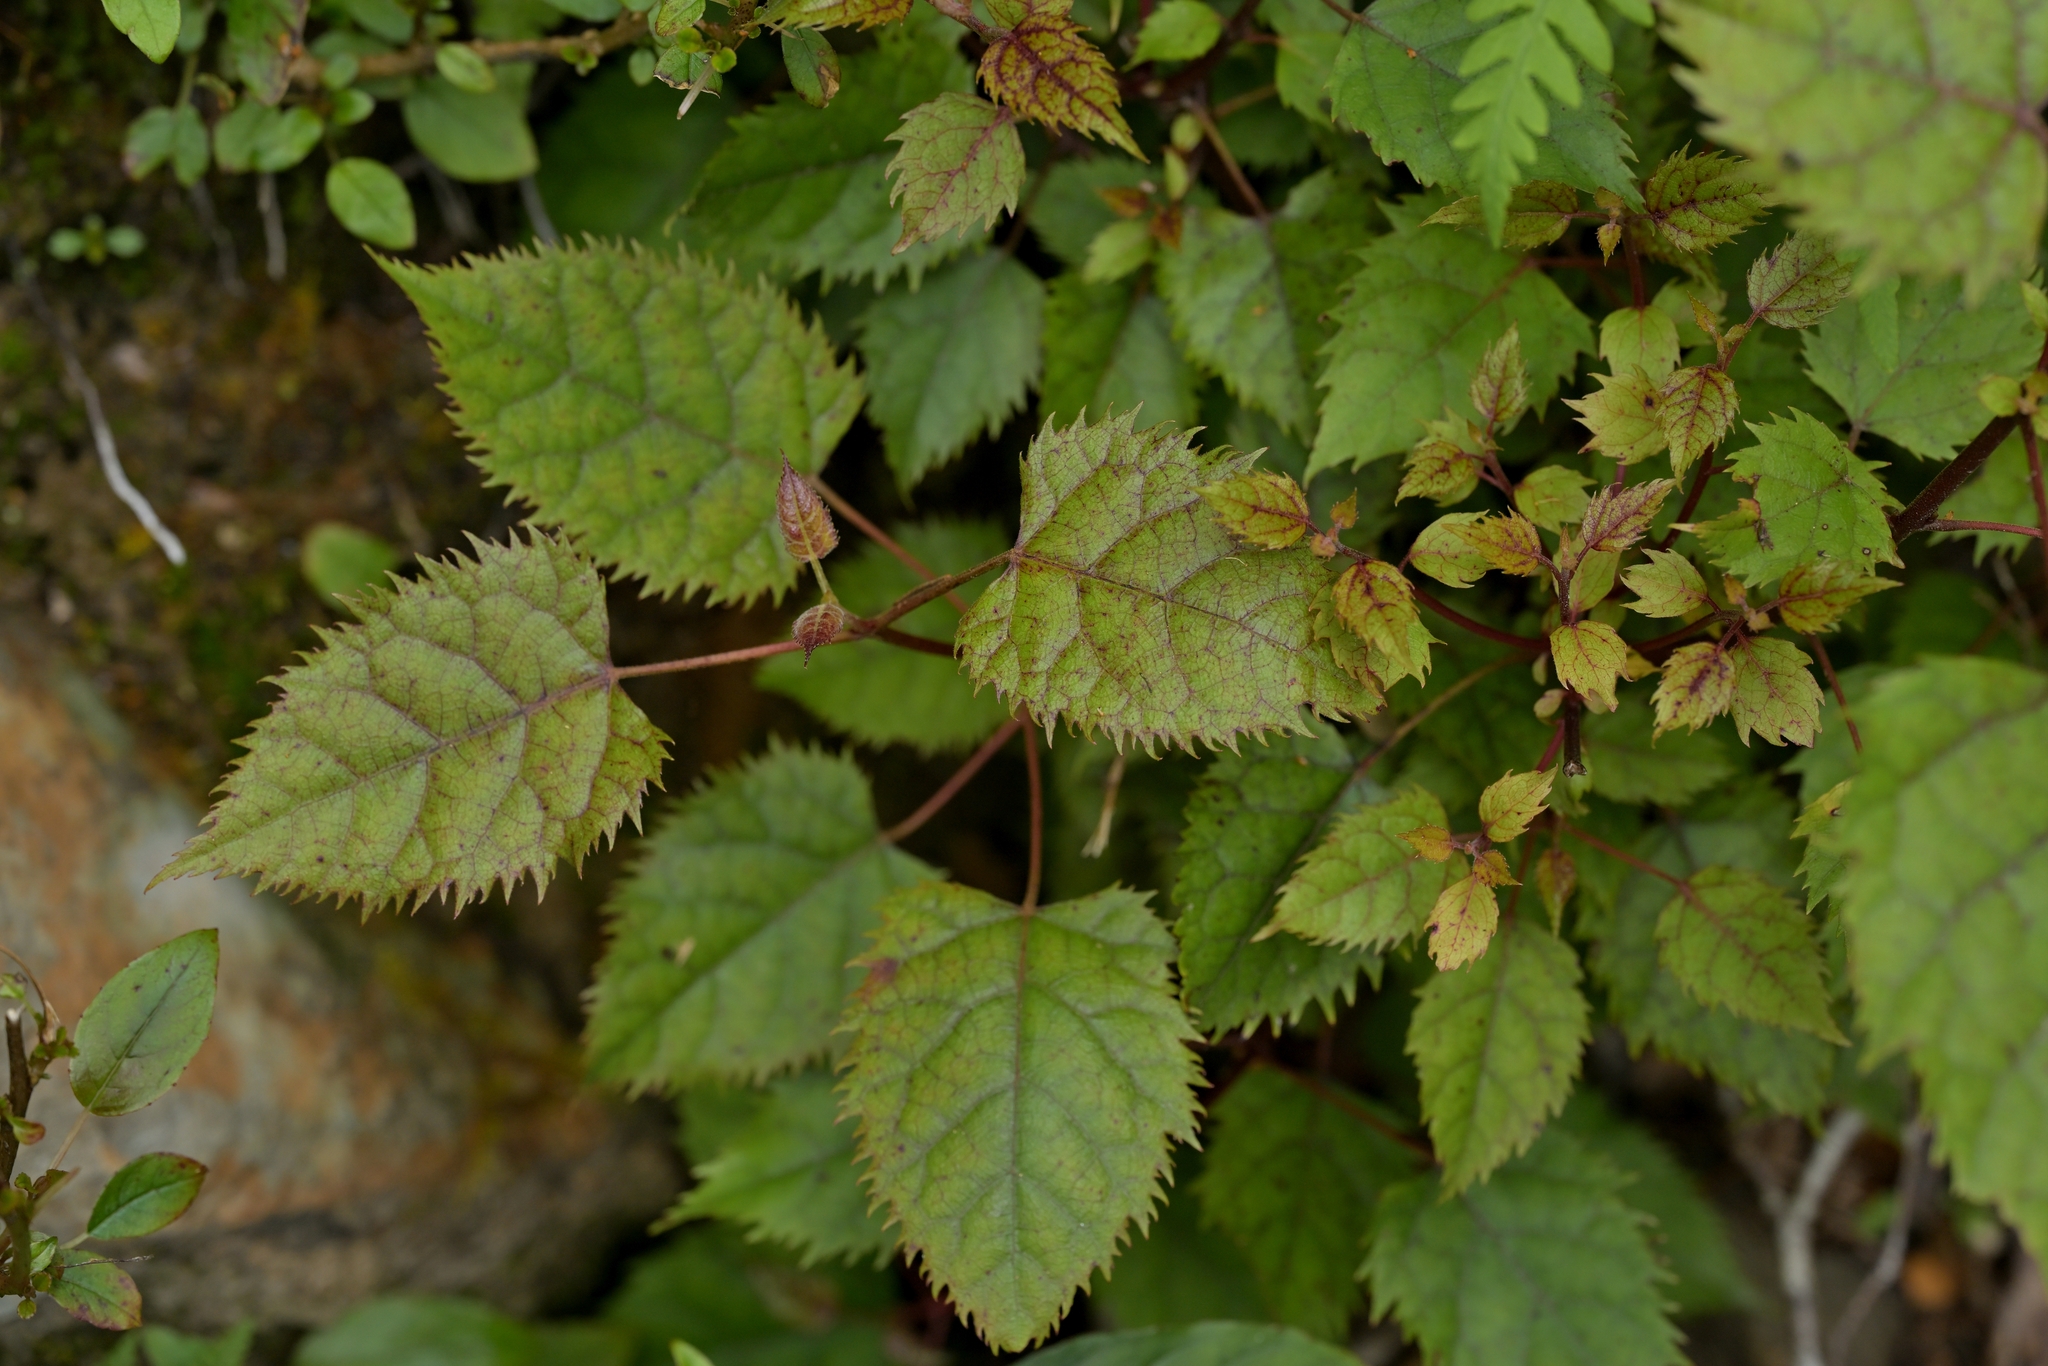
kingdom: Plantae
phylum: Tracheophyta
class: Magnoliopsida
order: Oxalidales
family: Elaeocarpaceae
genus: Aristotelia
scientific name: Aristotelia serrata
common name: New zealand wineberry
